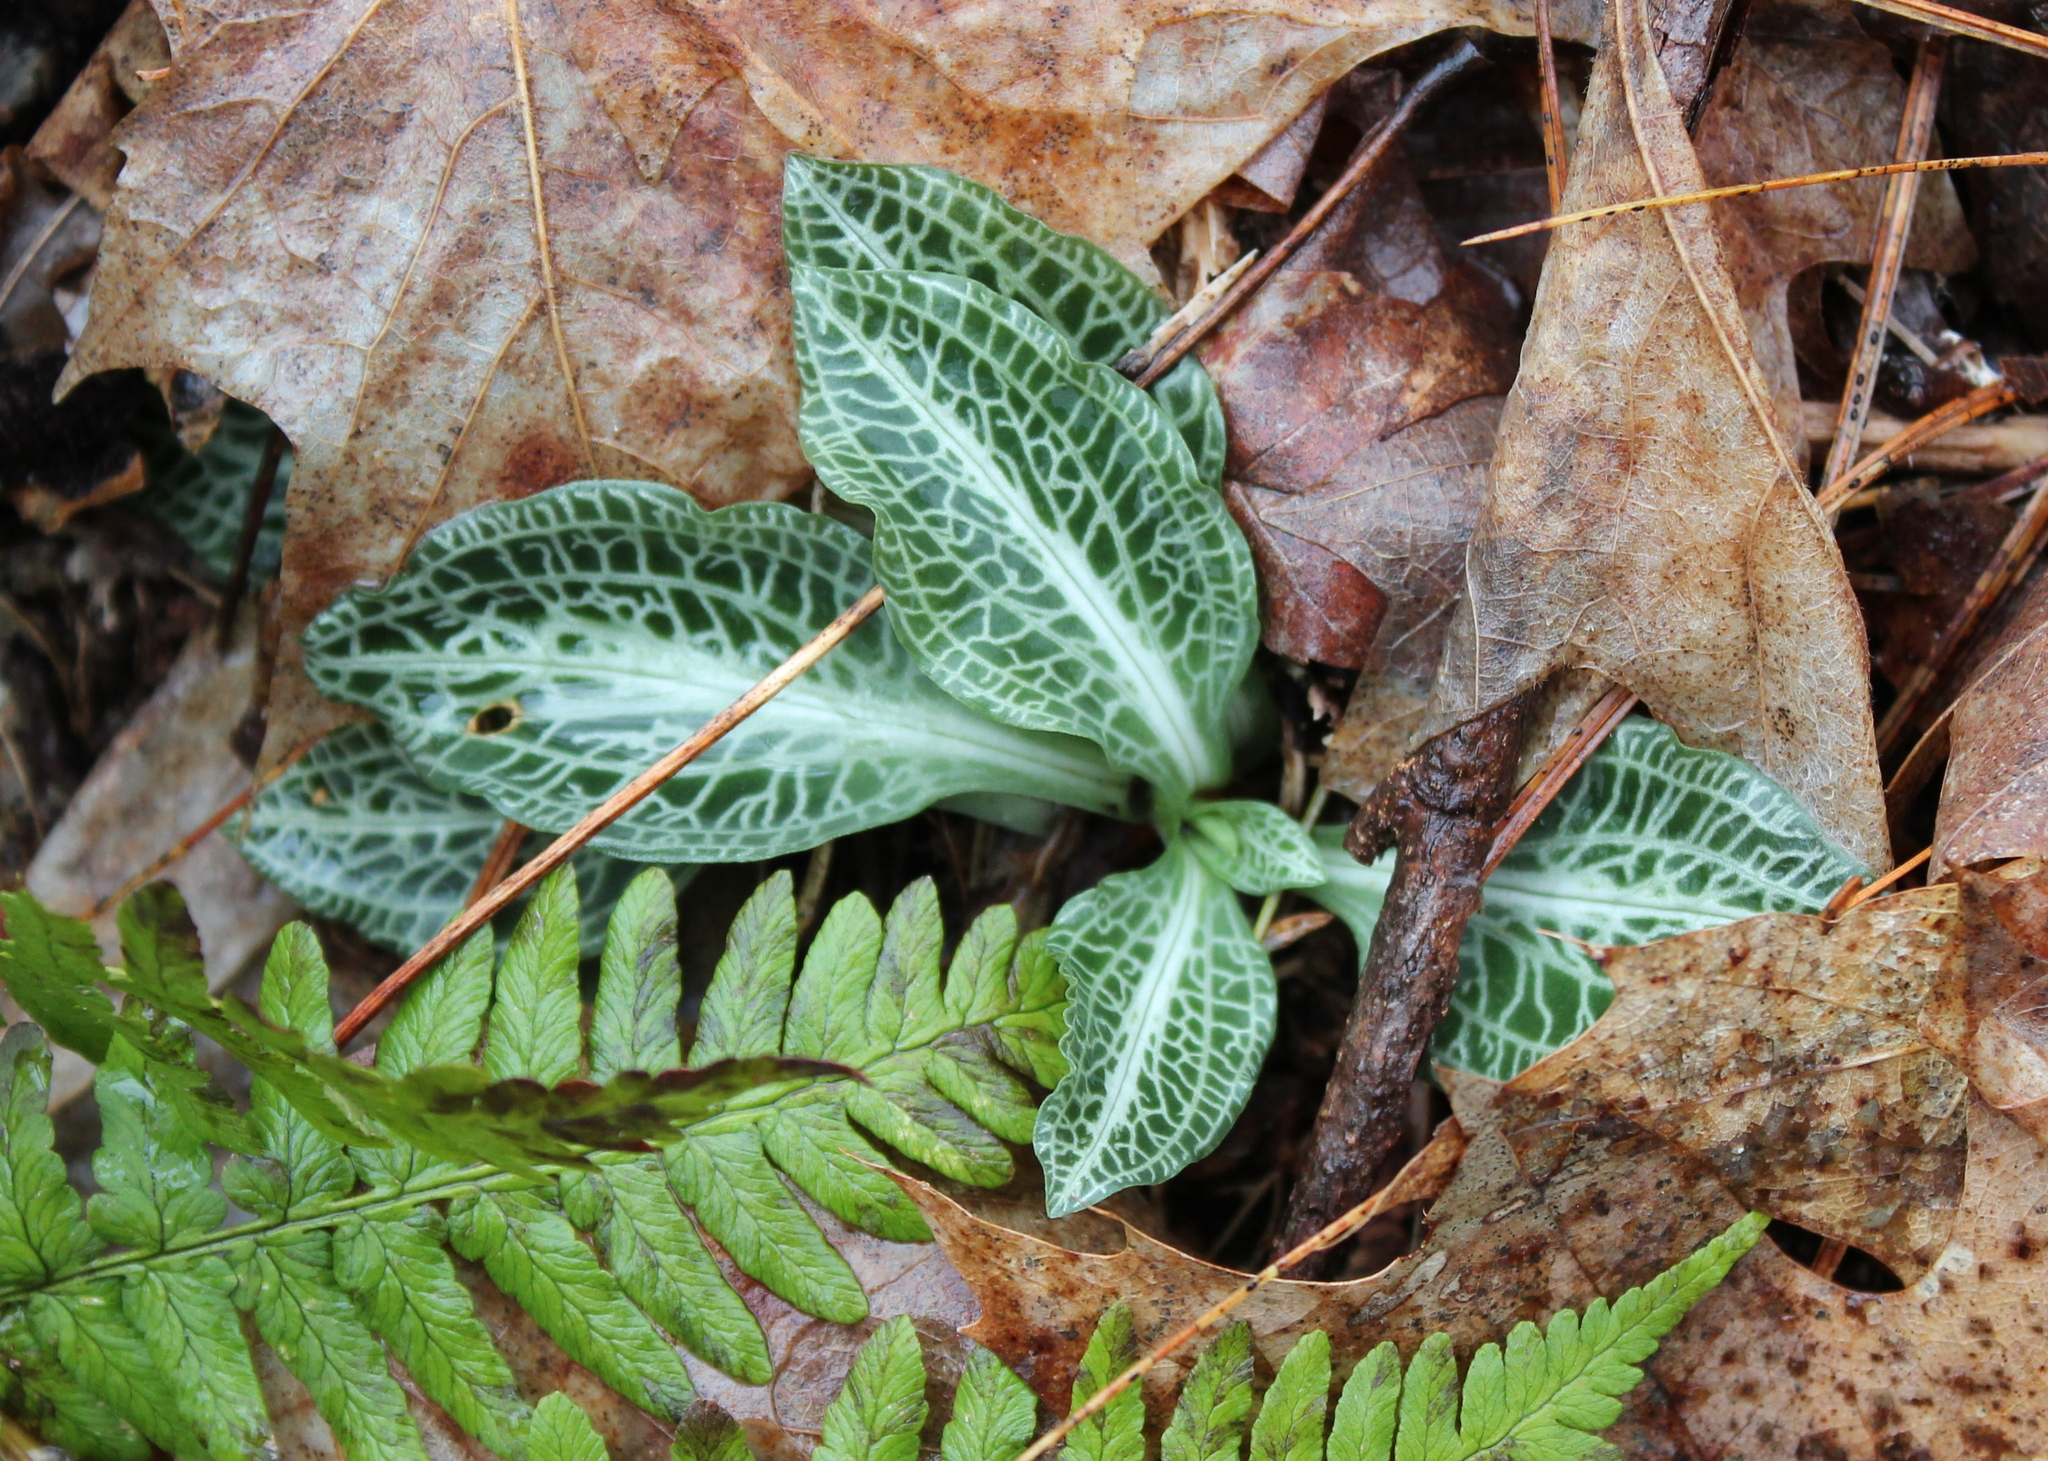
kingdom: Plantae
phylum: Tracheophyta
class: Liliopsida
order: Asparagales
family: Orchidaceae
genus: Goodyera
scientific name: Goodyera pubescens
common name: Downy rattlesnake-plantain
